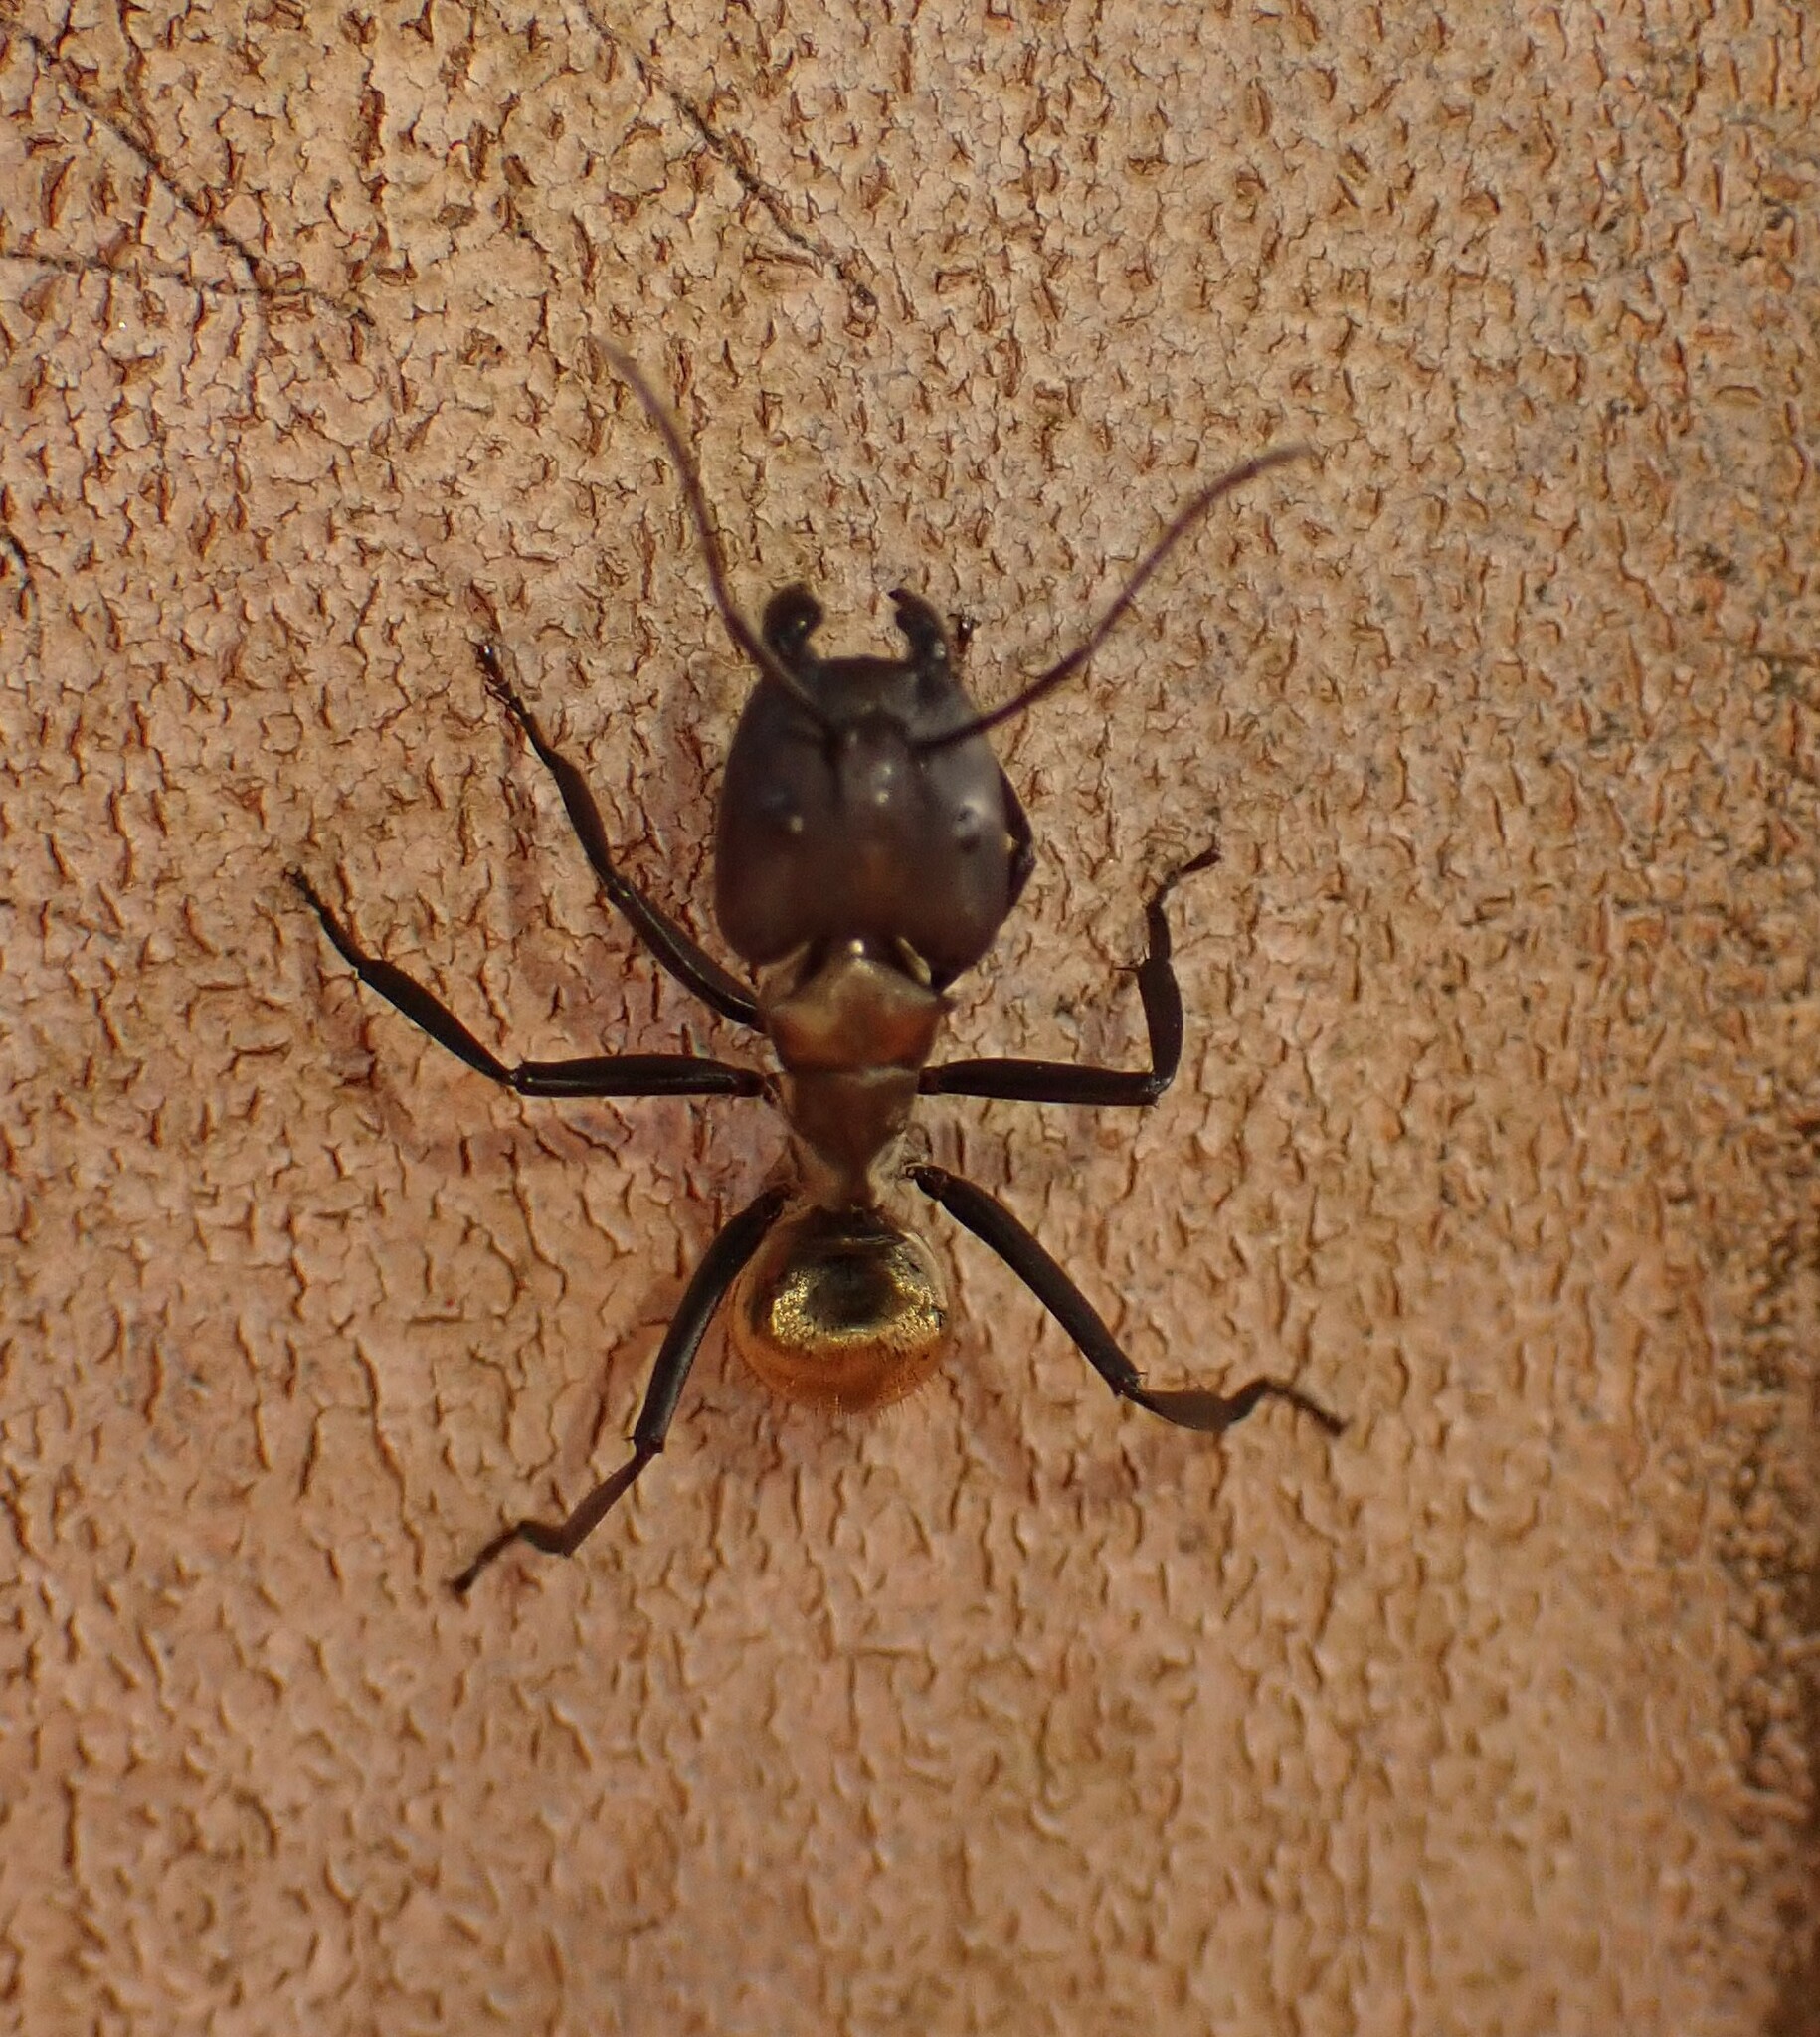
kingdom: Animalia
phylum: Arthropoda
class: Insecta
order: Hymenoptera
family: Formicidae
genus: Camponotus
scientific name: Camponotus sericeiventris
